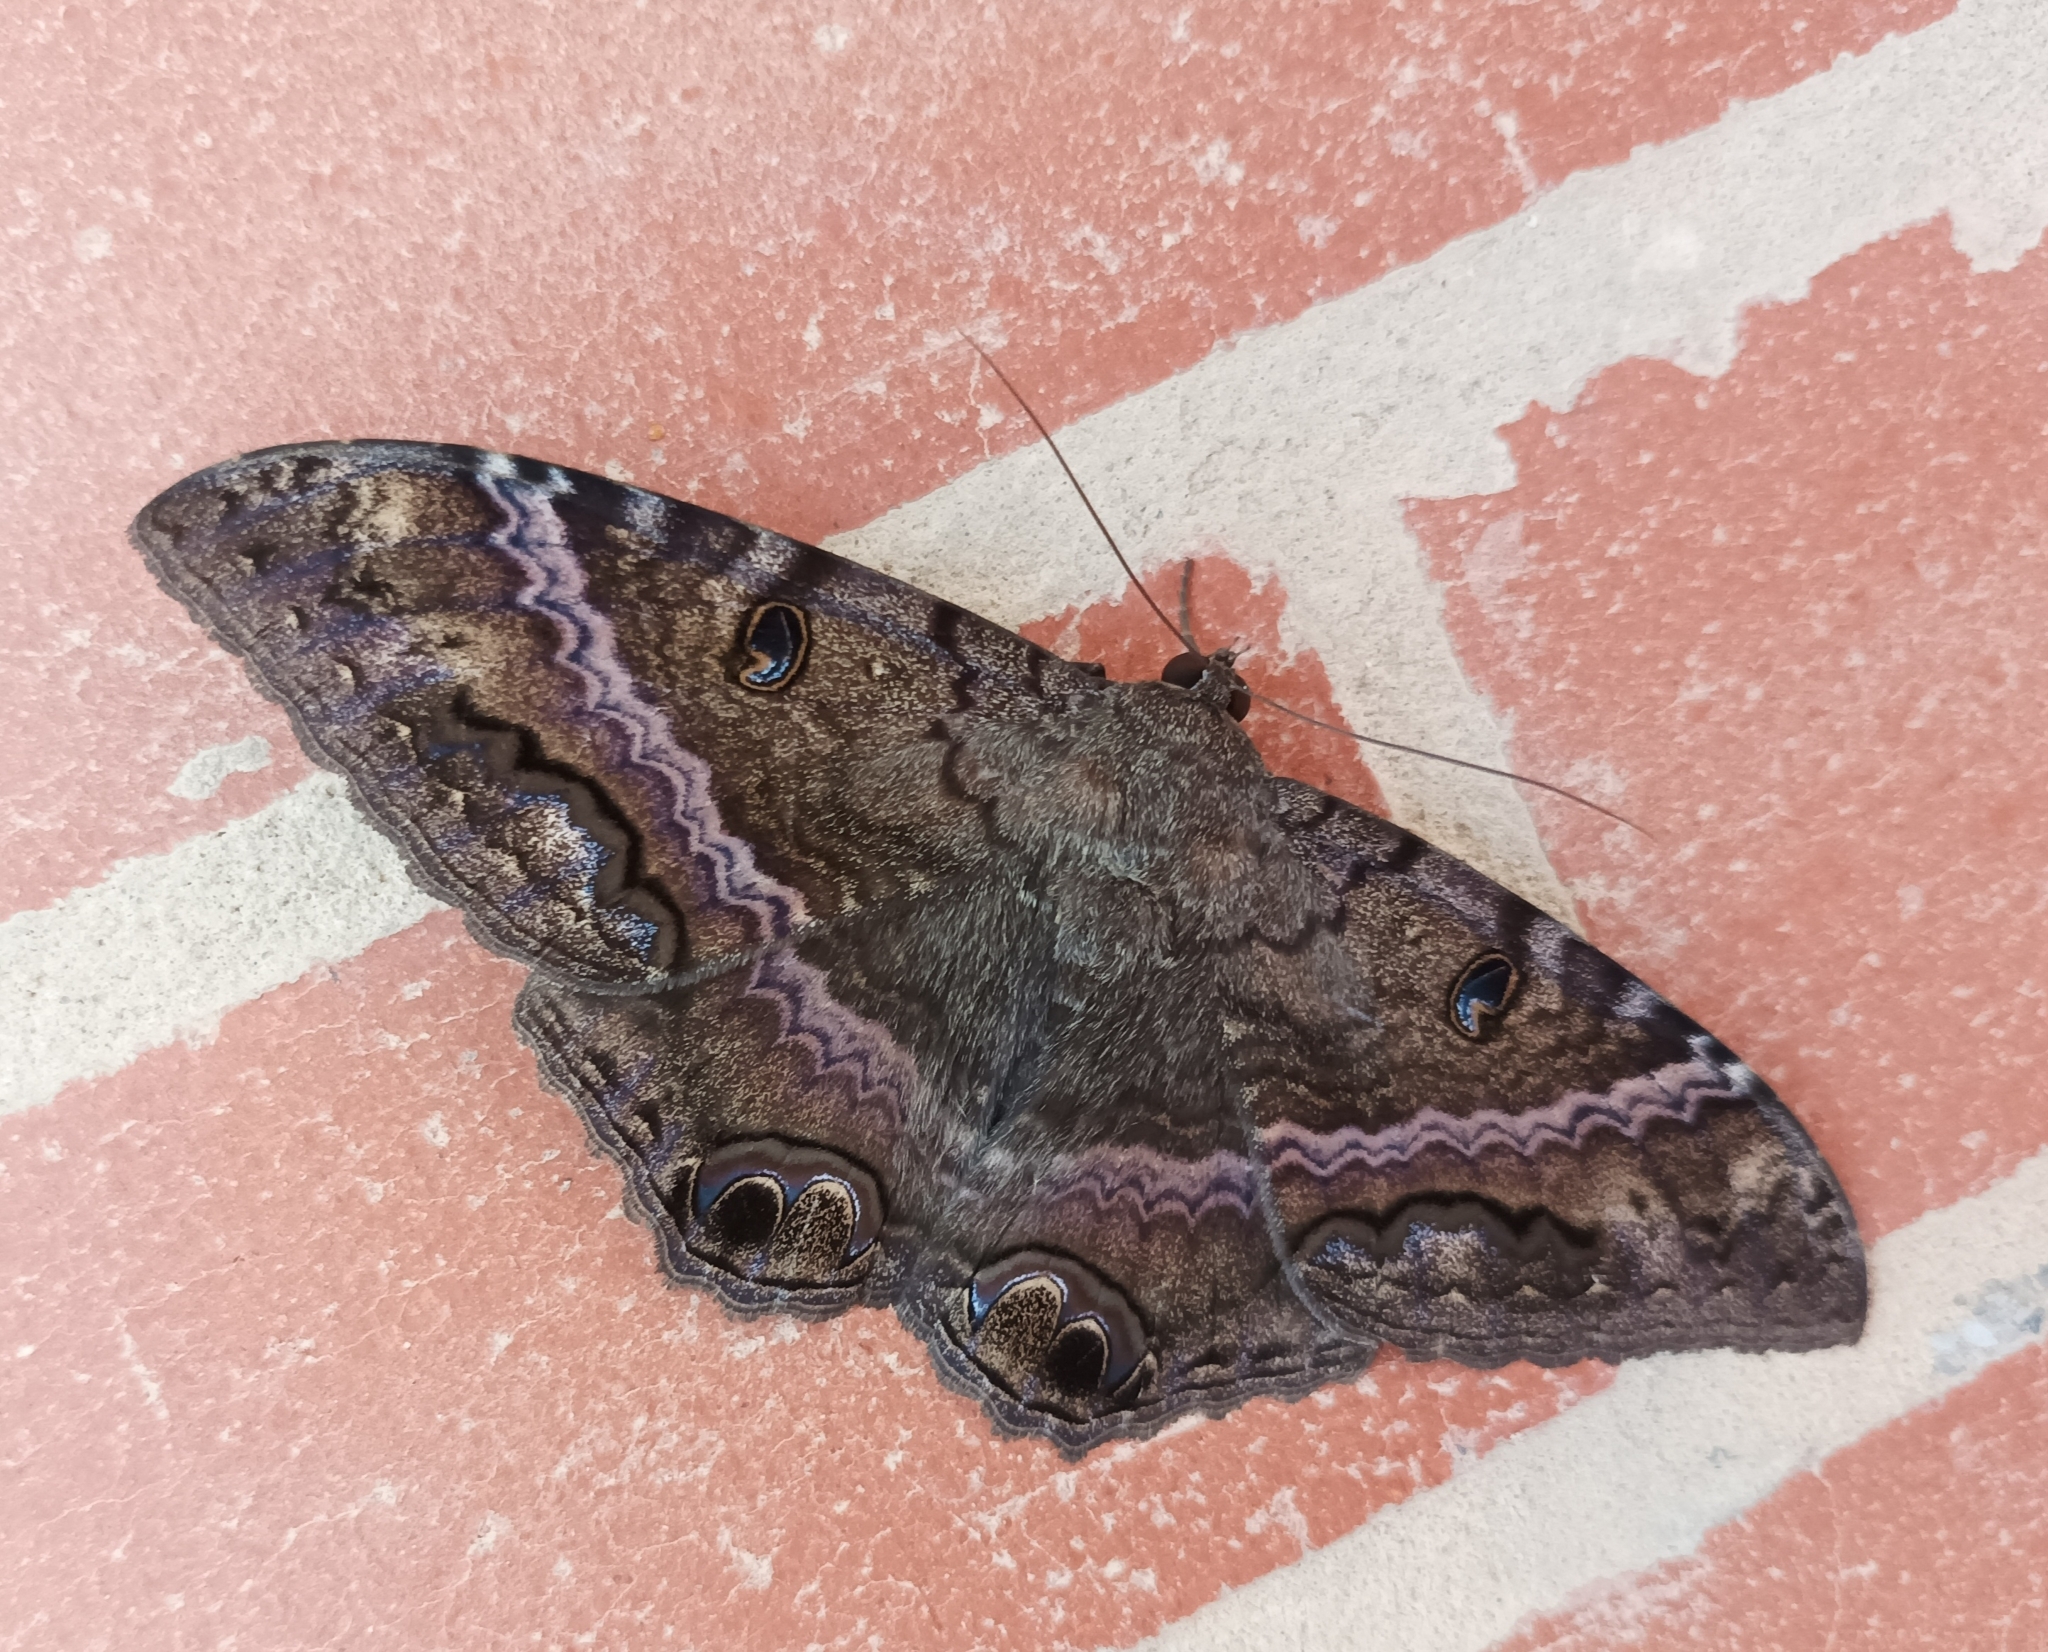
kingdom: Animalia
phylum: Arthropoda
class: Insecta
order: Lepidoptera
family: Erebidae
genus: Ascalapha
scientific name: Ascalapha odorata
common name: Black witch
